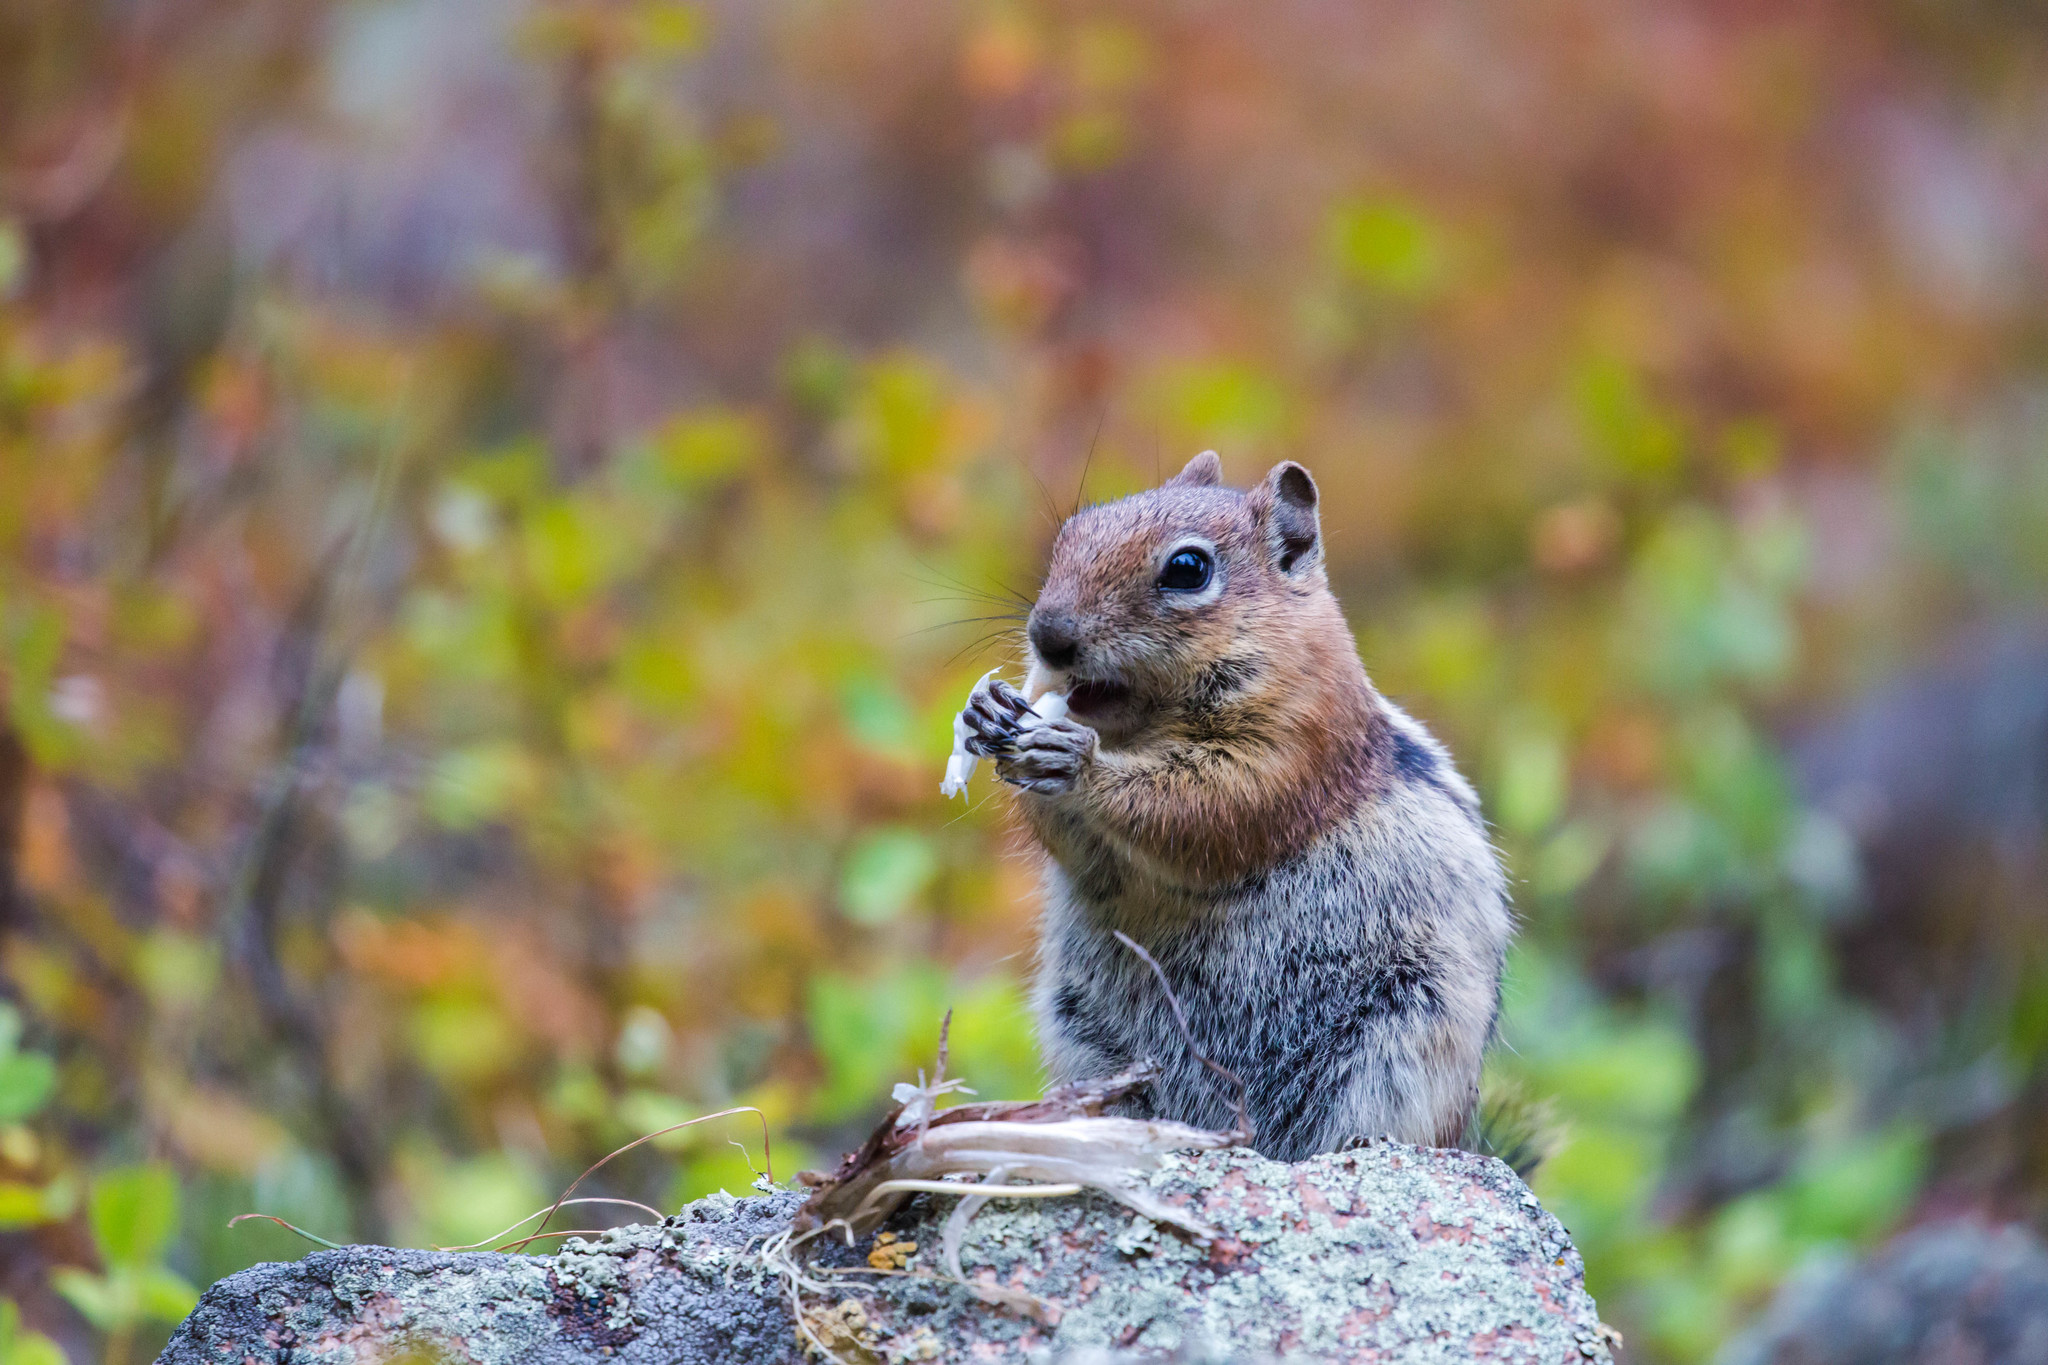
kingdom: Animalia
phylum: Chordata
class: Mammalia
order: Rodentia
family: Sciuridae
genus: Callospermophilus
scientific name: Callospermophilus lateralis
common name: Golden-mantled ground squirrel
